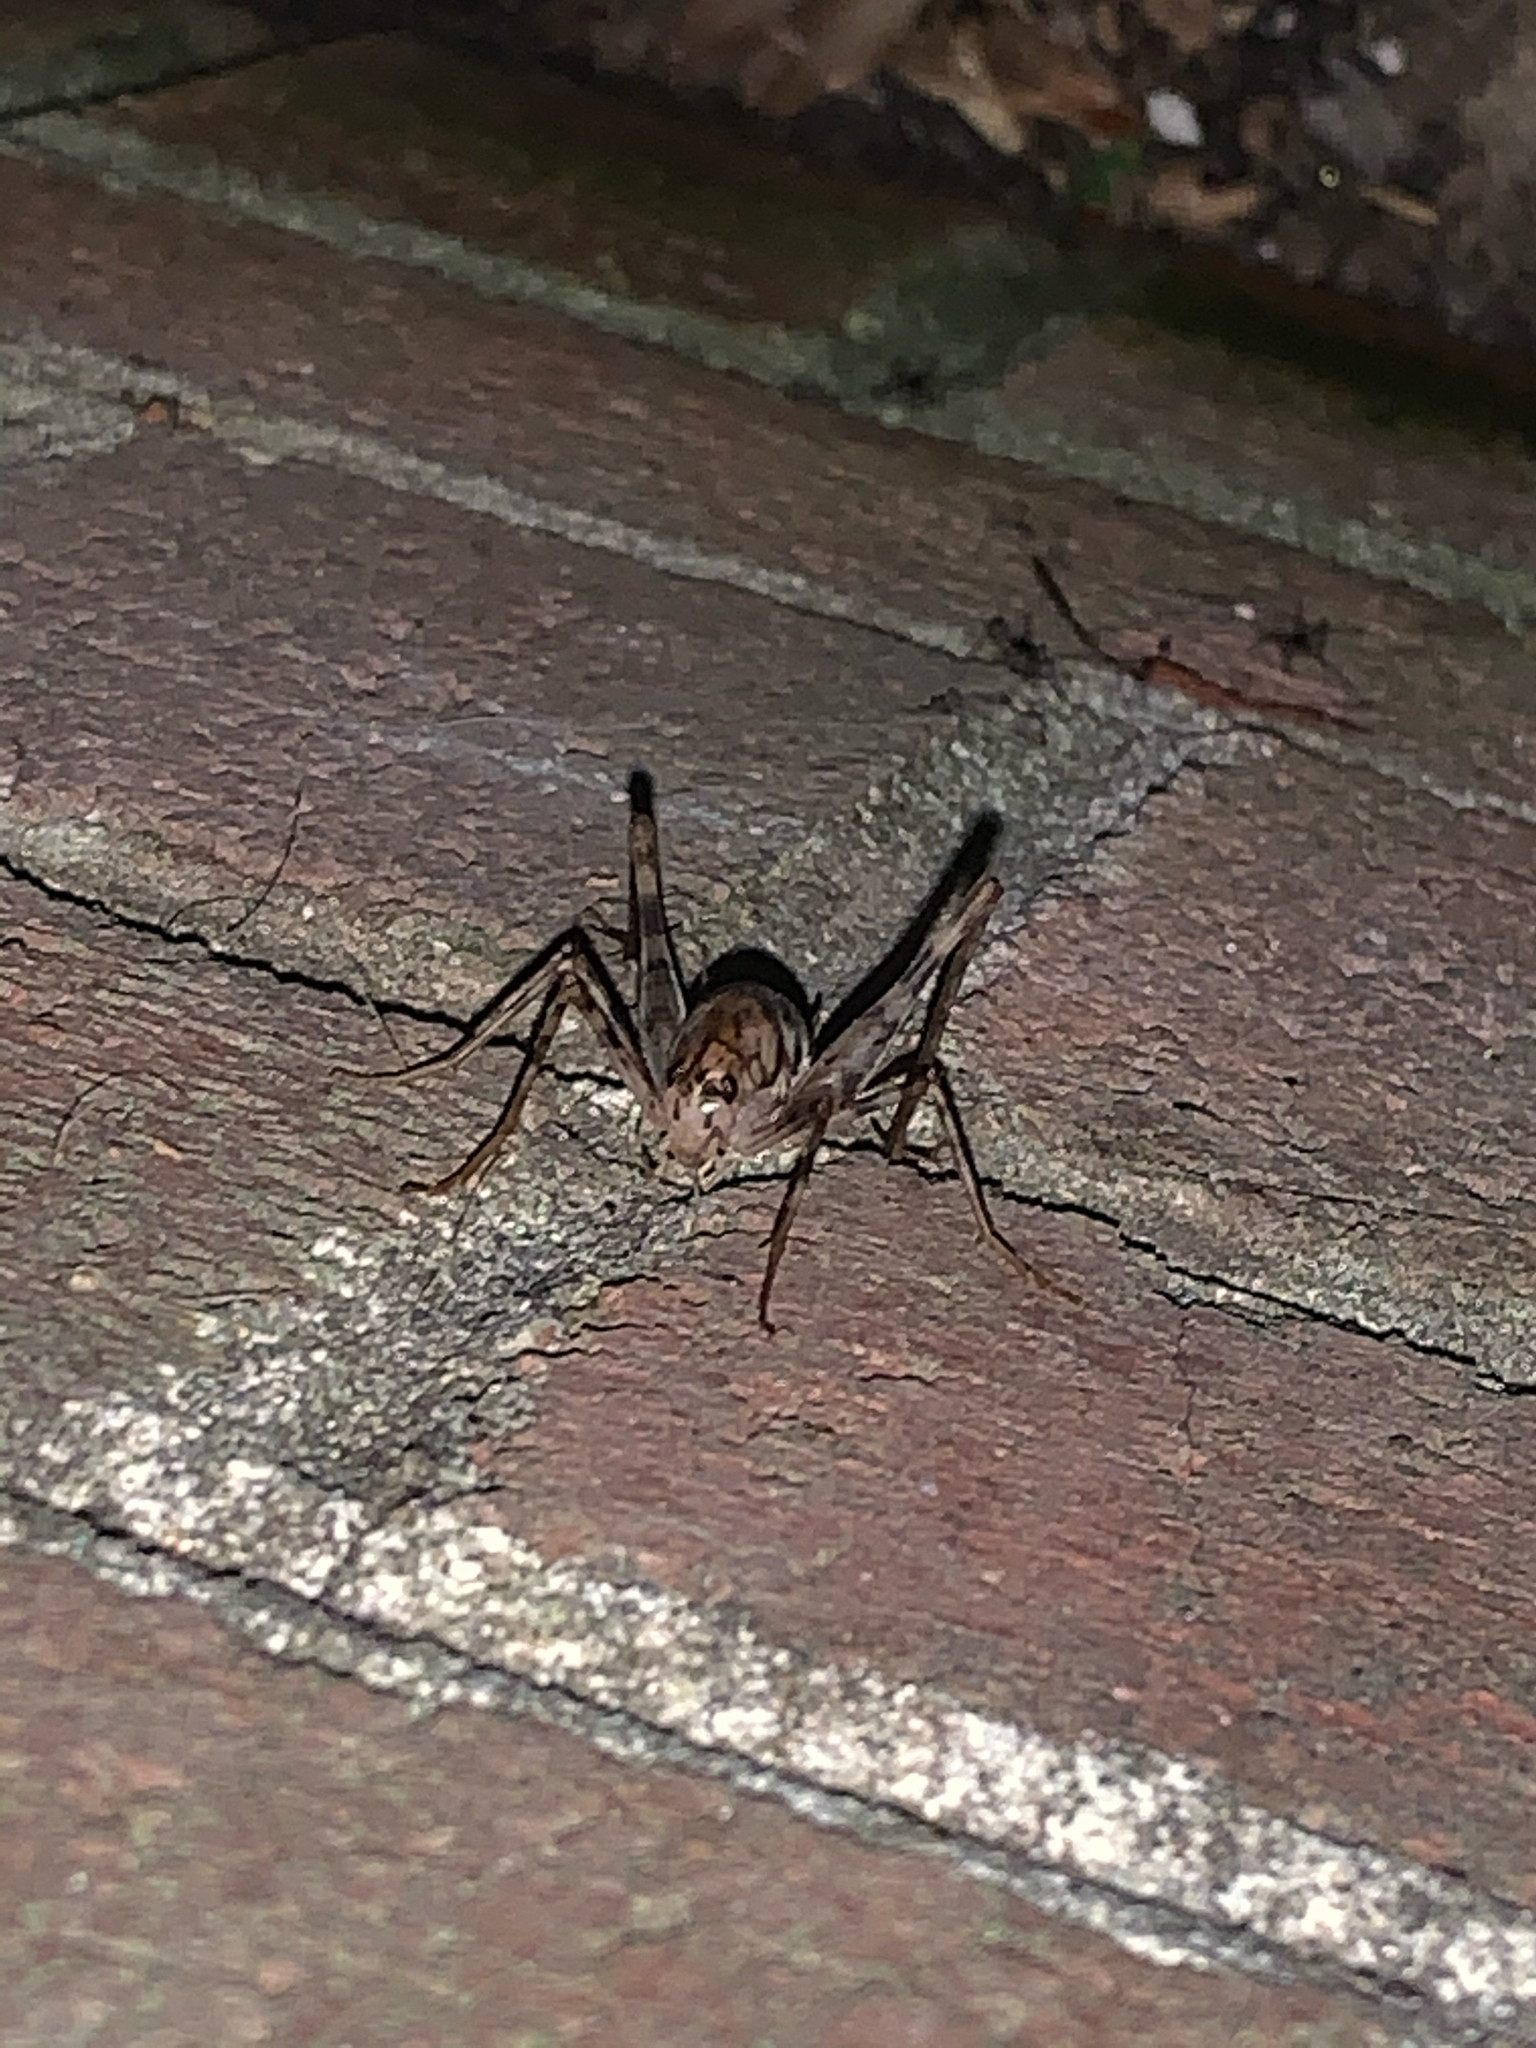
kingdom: Animalia
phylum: Arthropoda
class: Insecta
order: Orthoptera
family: Rhaphidophoridae
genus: Tachycines
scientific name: Tachycines asynamorus
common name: Greenhouse camel cricket
